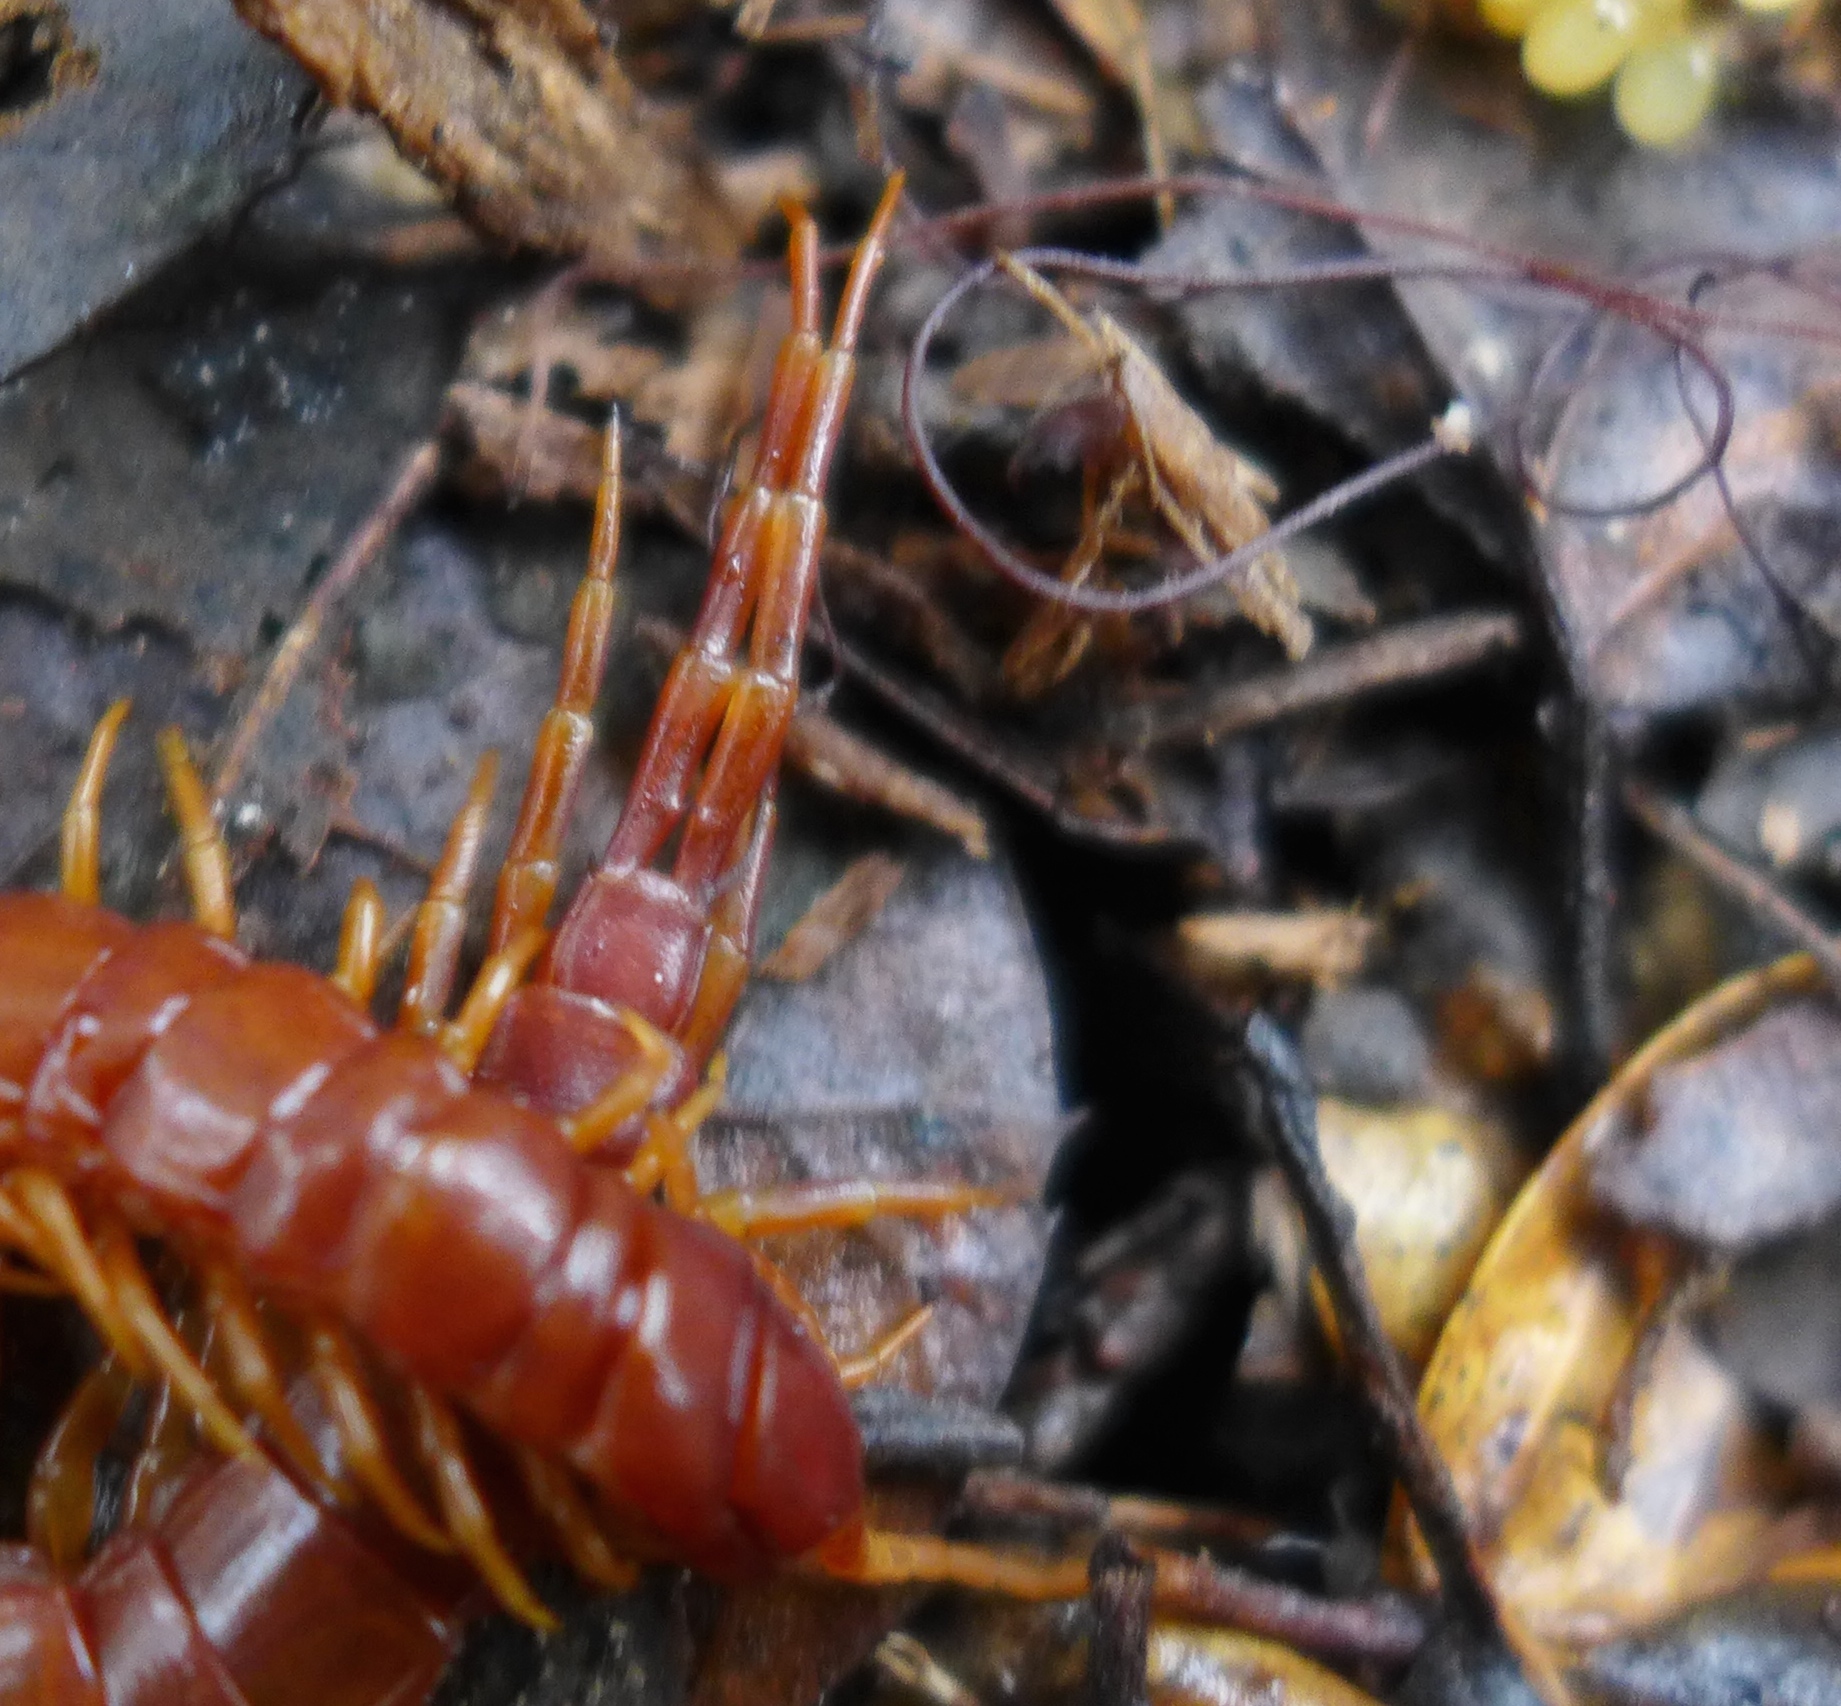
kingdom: Animalia
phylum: Arthropoda
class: Chilopoda
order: Scolopendromorpha
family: Scolopocryptopidae
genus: Scolopocryptops
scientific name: Scolopocryptops spinicaudus
